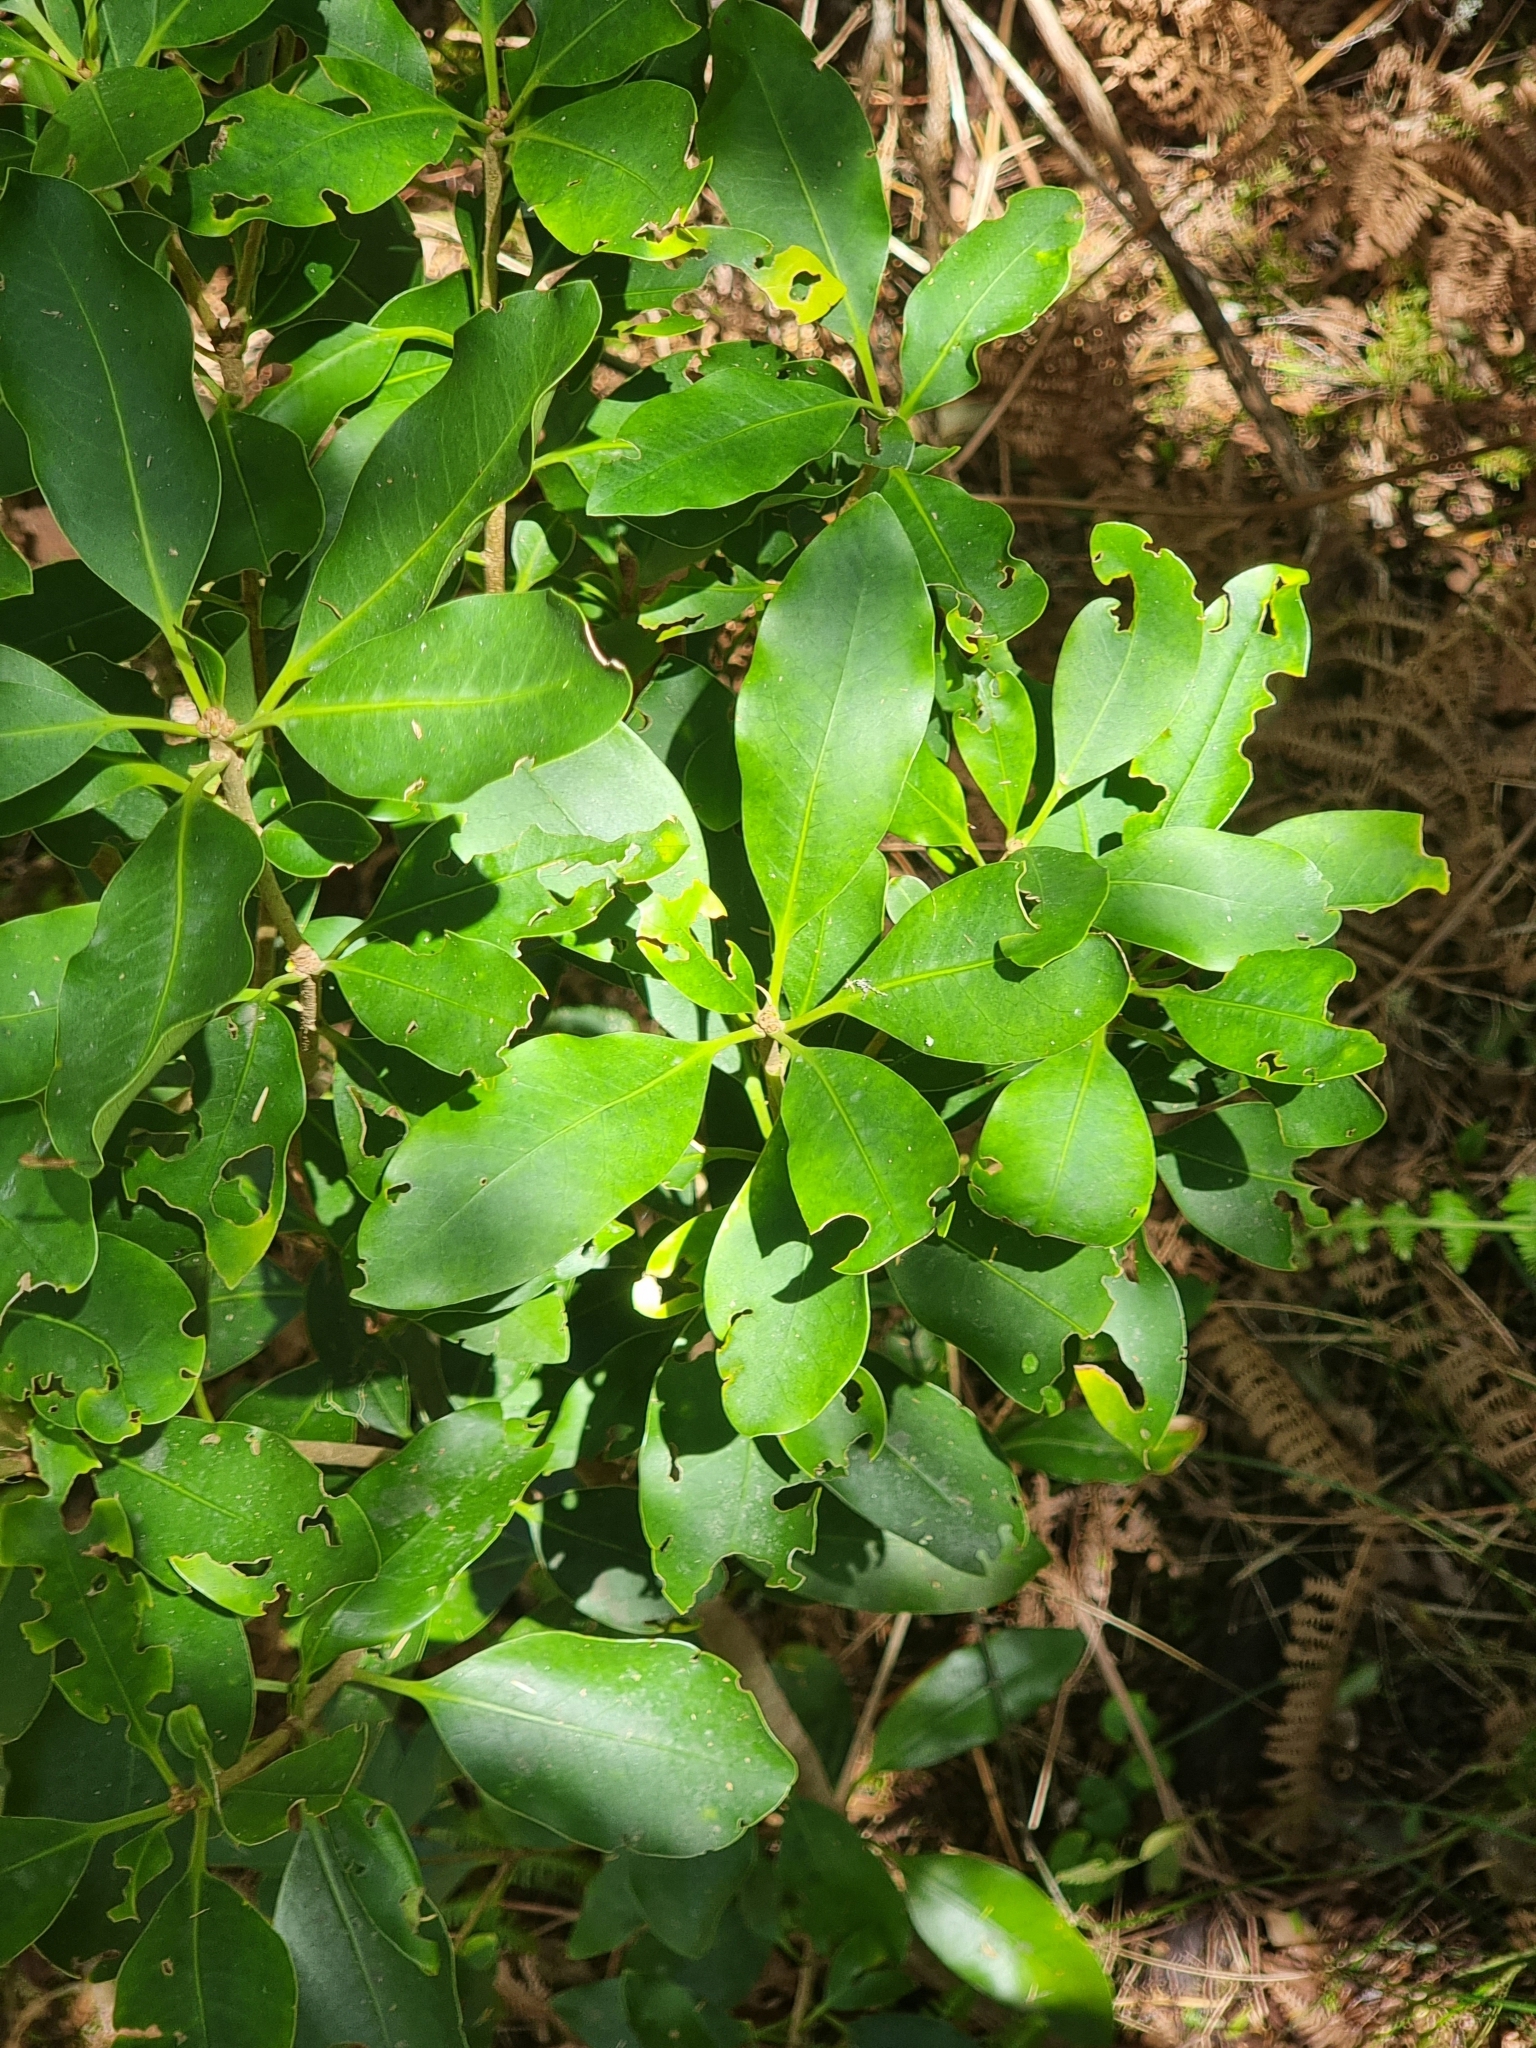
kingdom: Plantae
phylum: Tracheophyta
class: Magnoliopsida
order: Apiales
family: Pittosporaceae
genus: Pittosporum
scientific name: Pittosporum coriaceum
